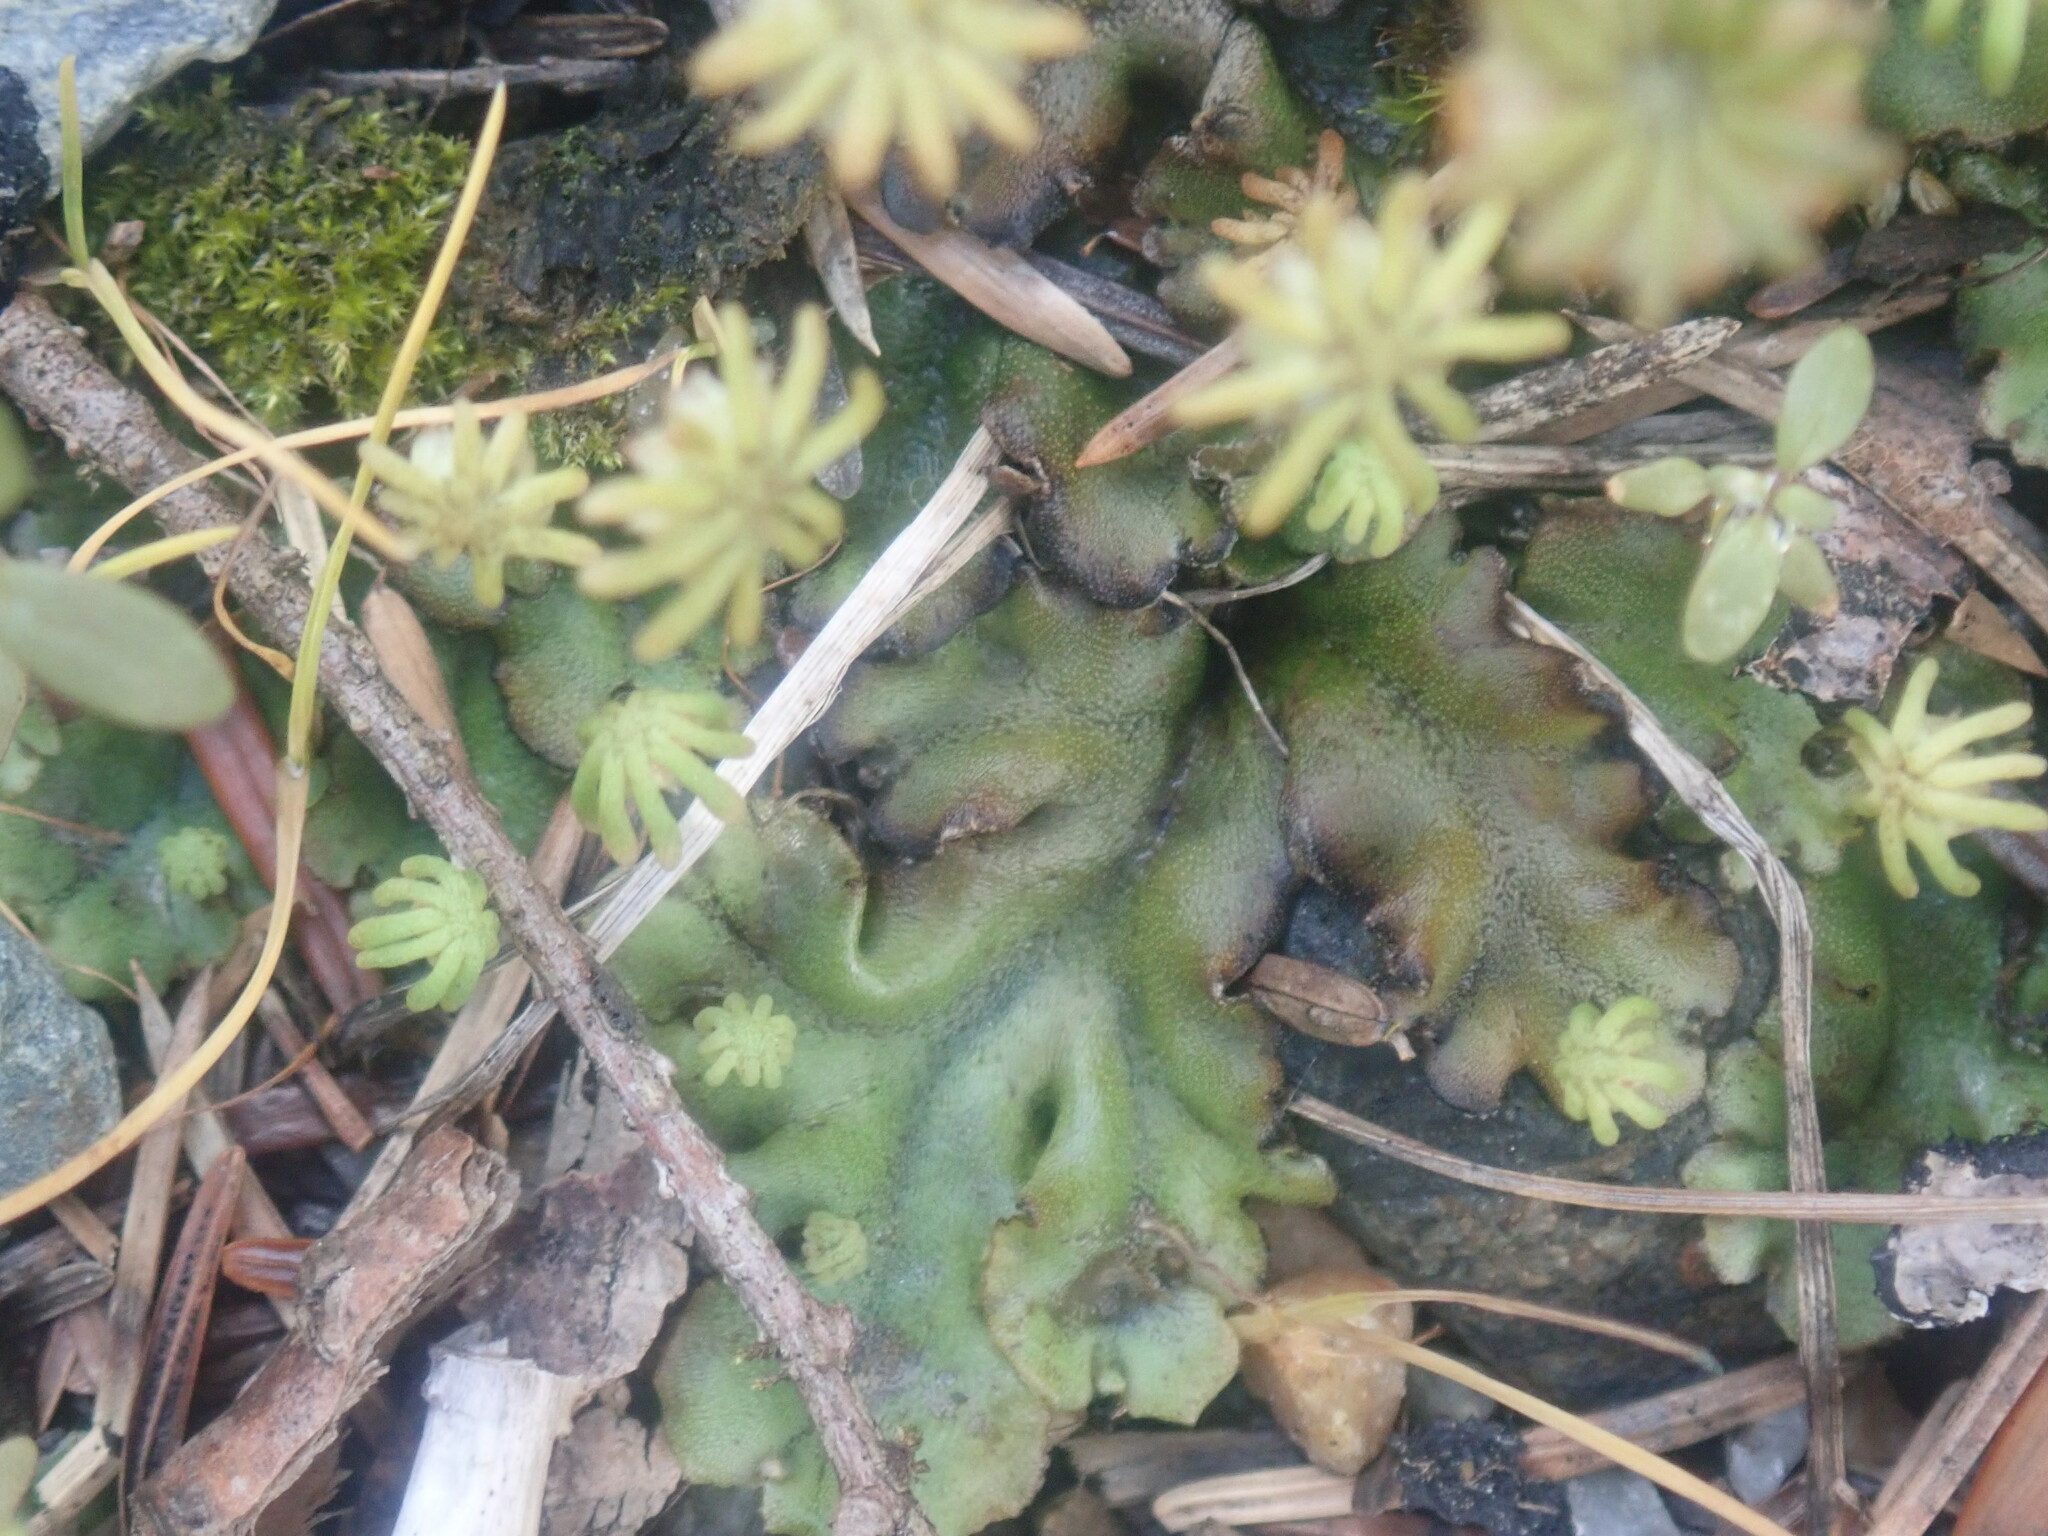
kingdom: Plantae
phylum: Marchantiophyta
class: Marchantiopsida
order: Marchantiales
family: Marchantiaceae
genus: Marchantia
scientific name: Marchantia polymorpha
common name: Common liverwort
